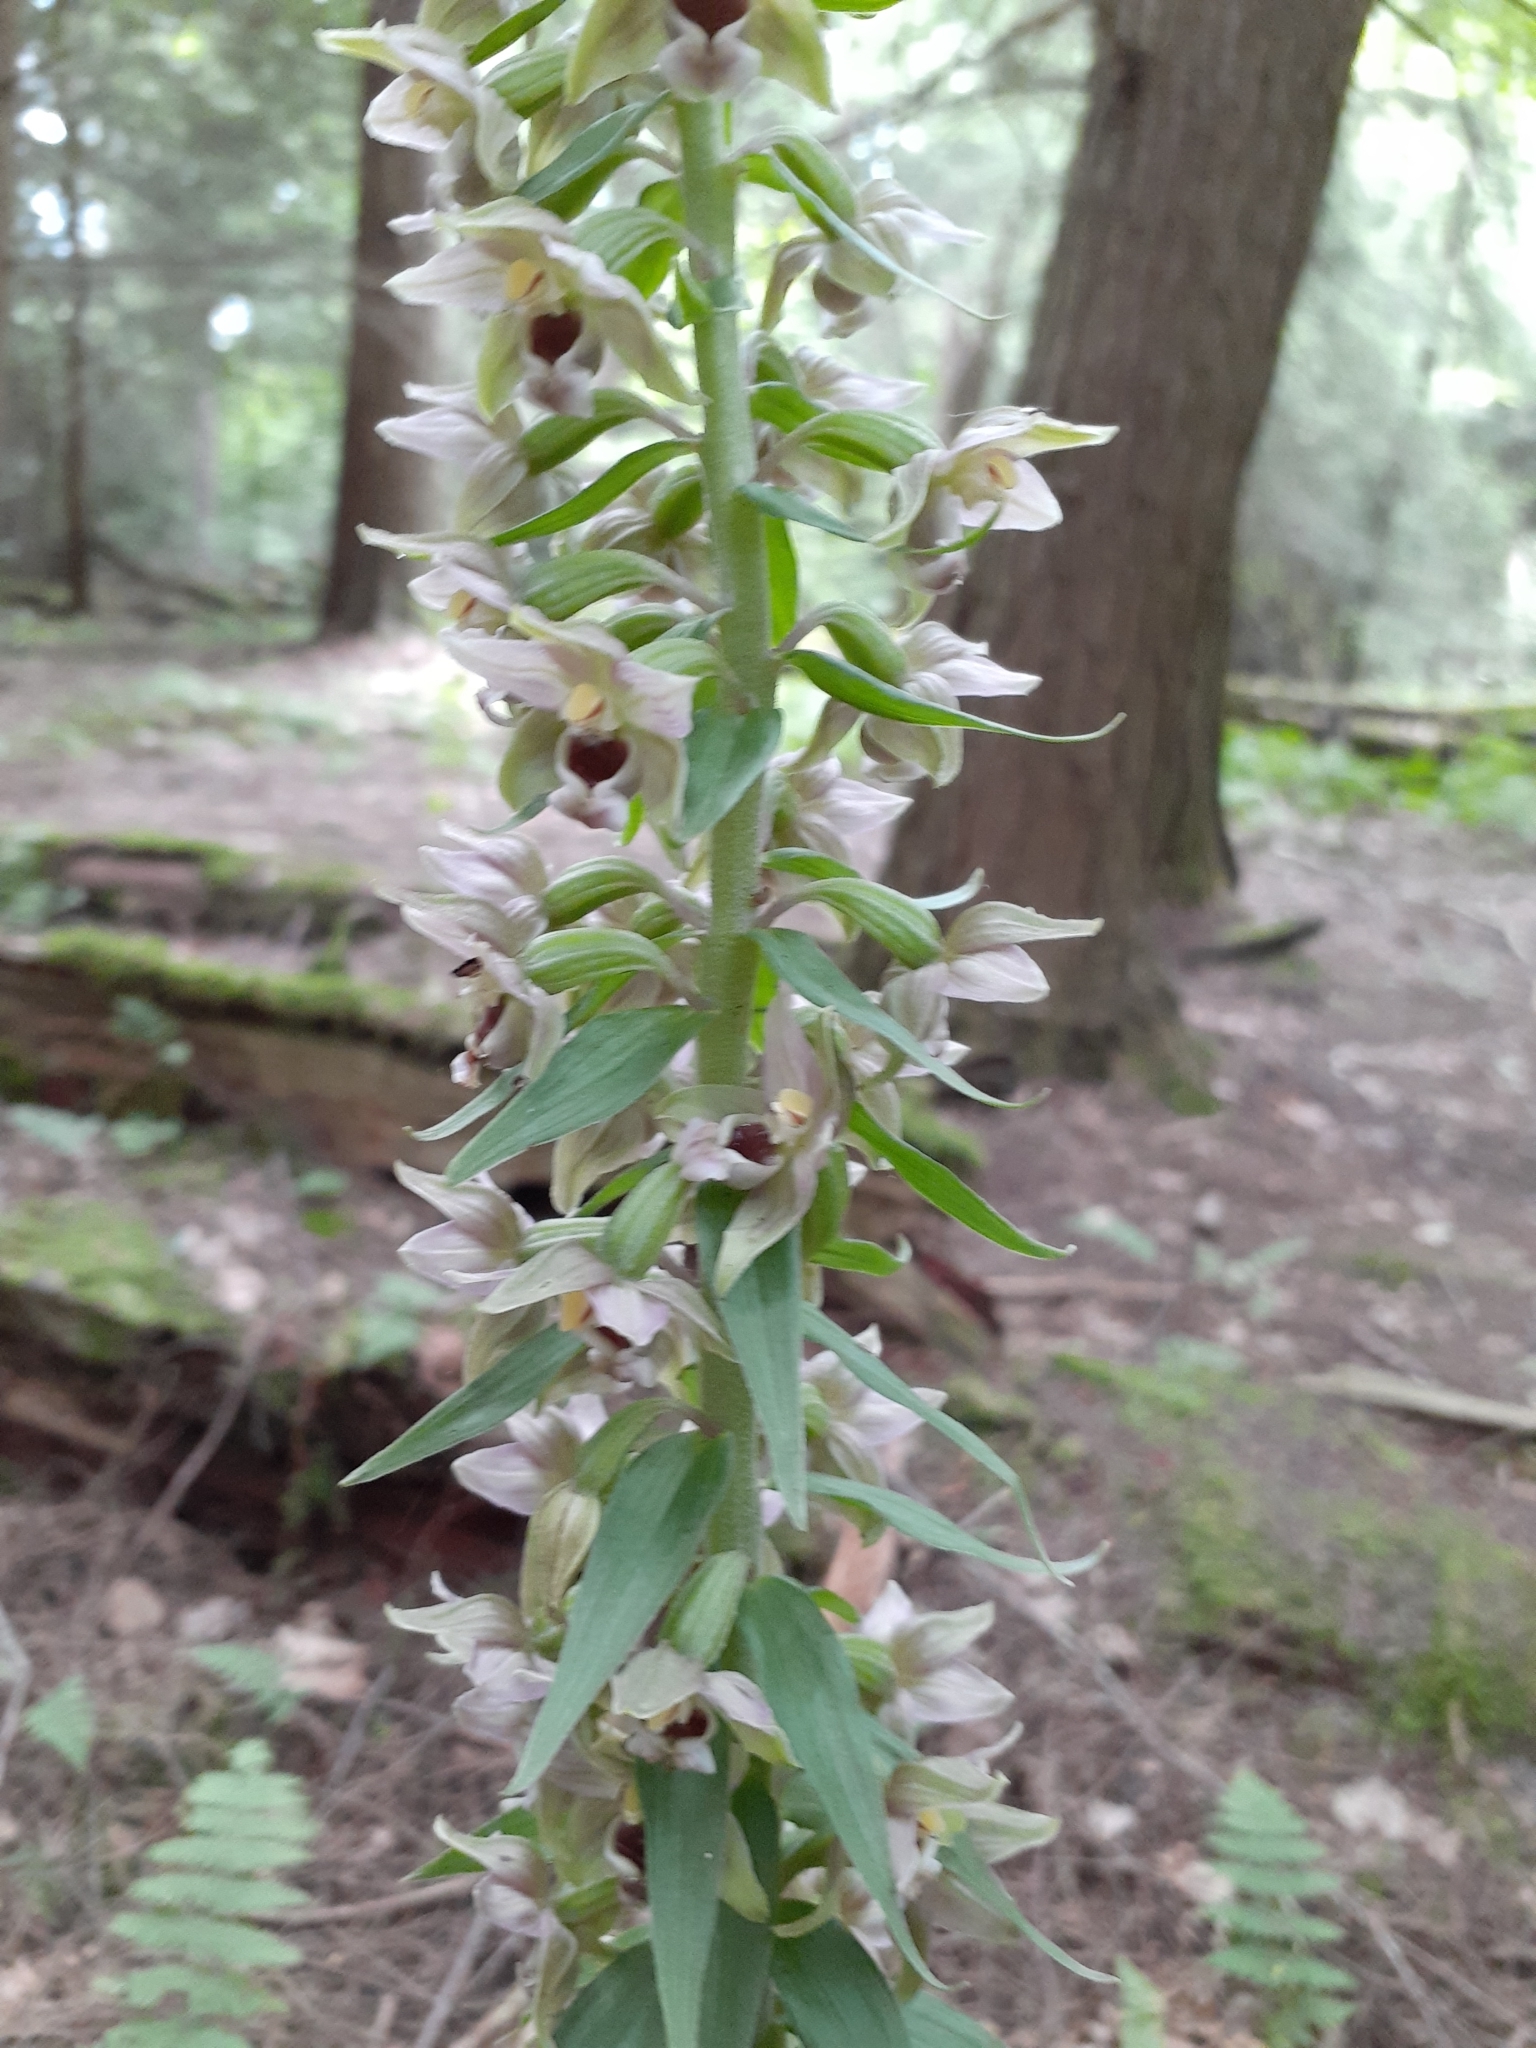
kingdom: Plantae
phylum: Tracheophyta
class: Liliopsida
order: Asparagales
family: Orchidaceae
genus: Epipactis
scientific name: Epipactis helleborine
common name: Broad-leaved helleborine
